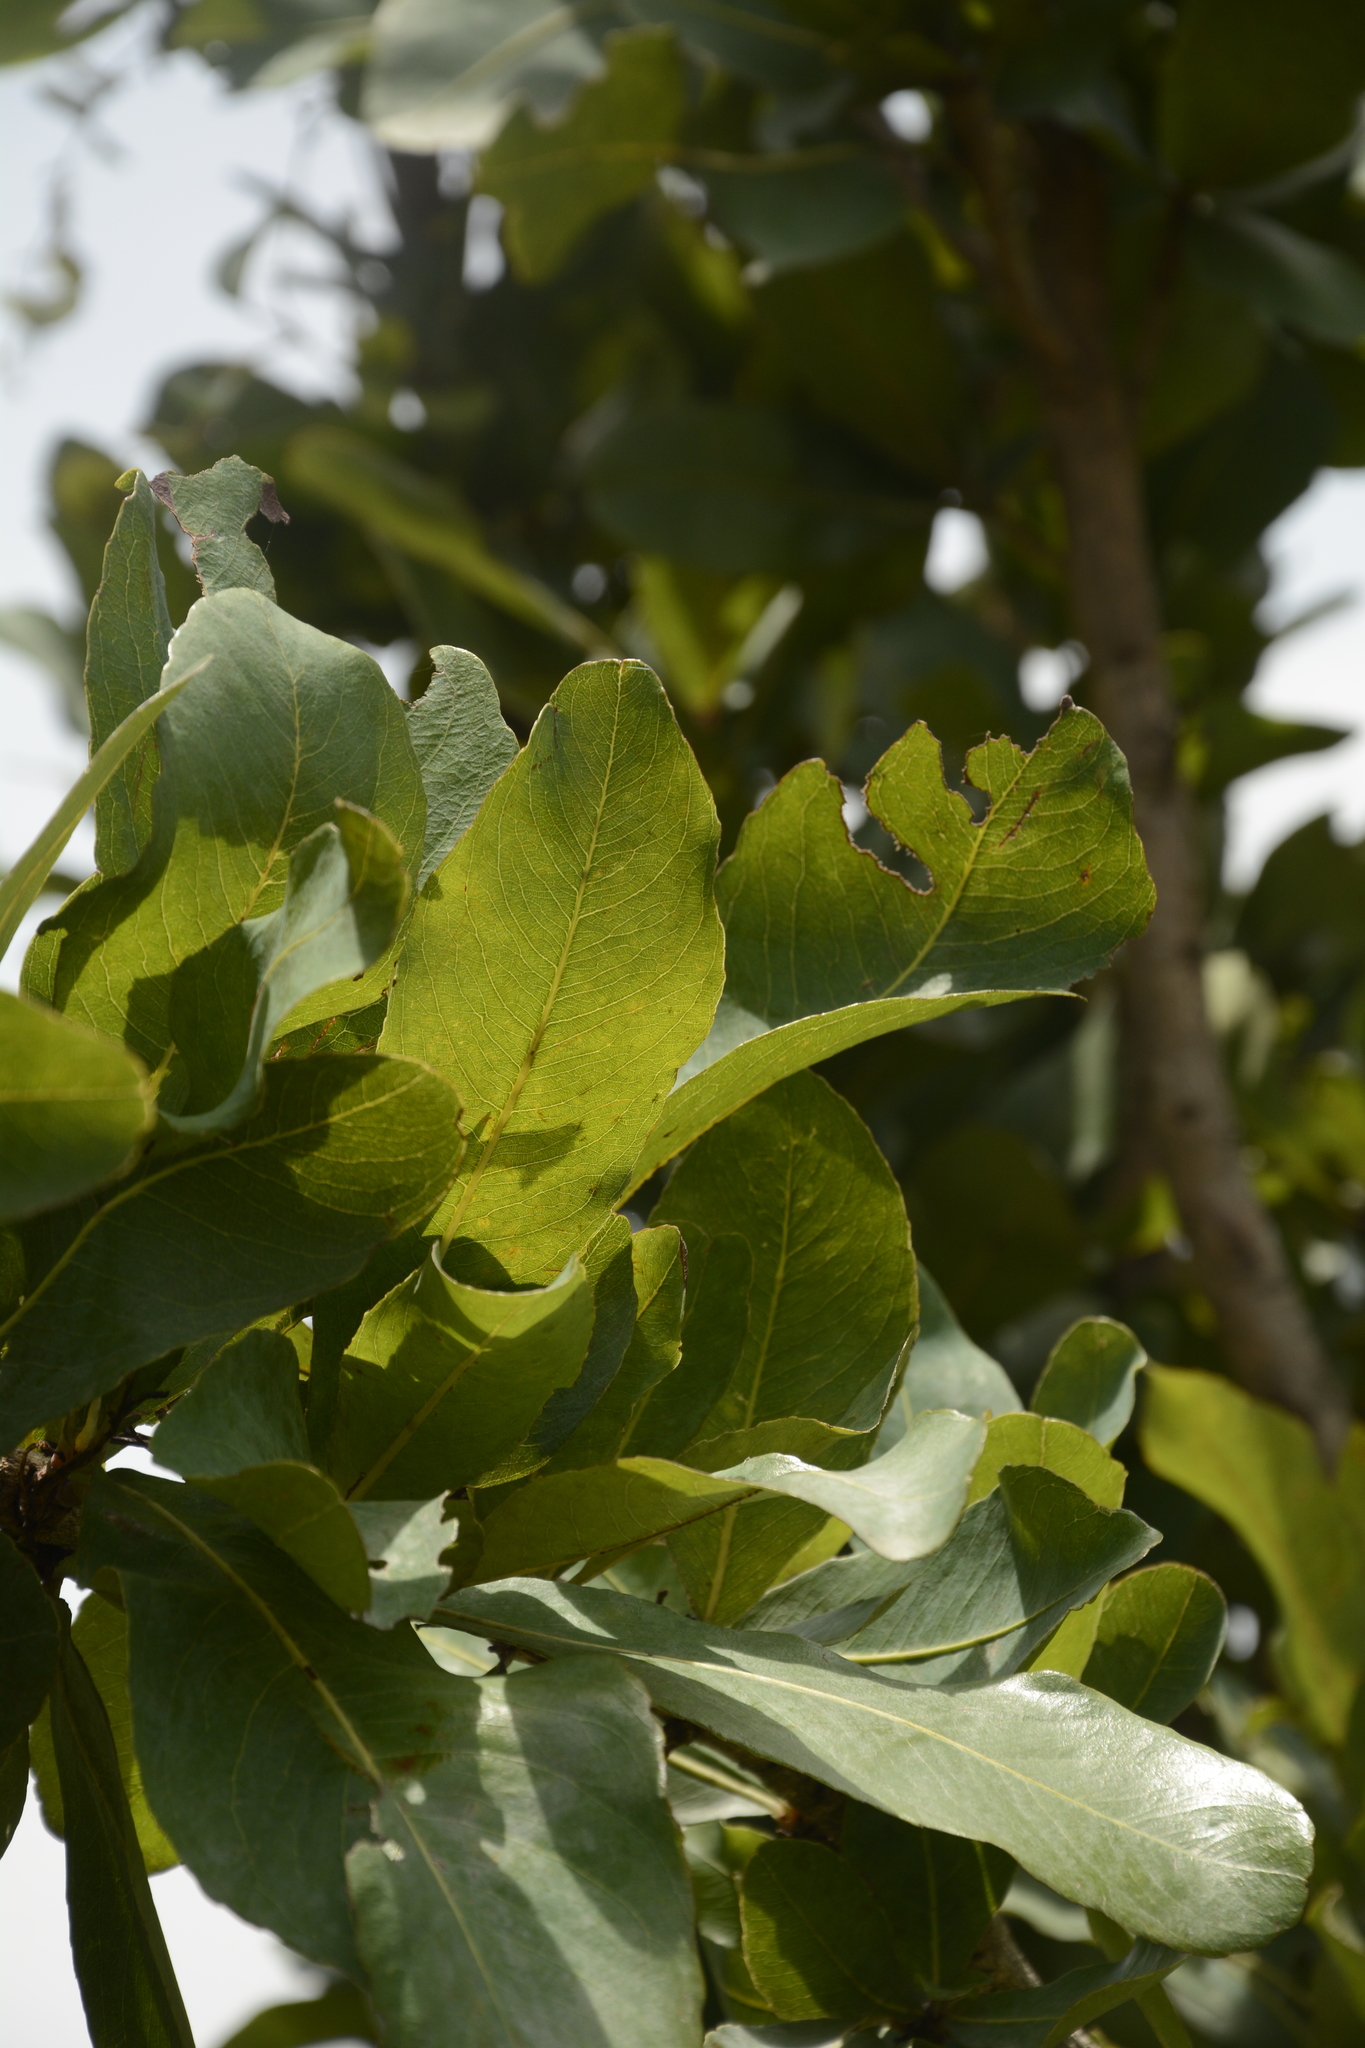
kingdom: Plantae
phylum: Tracheophyta
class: Magnoliopsida
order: Malpighiales
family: Ochnaceae
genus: Ochna
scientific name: Ochna gamblei
